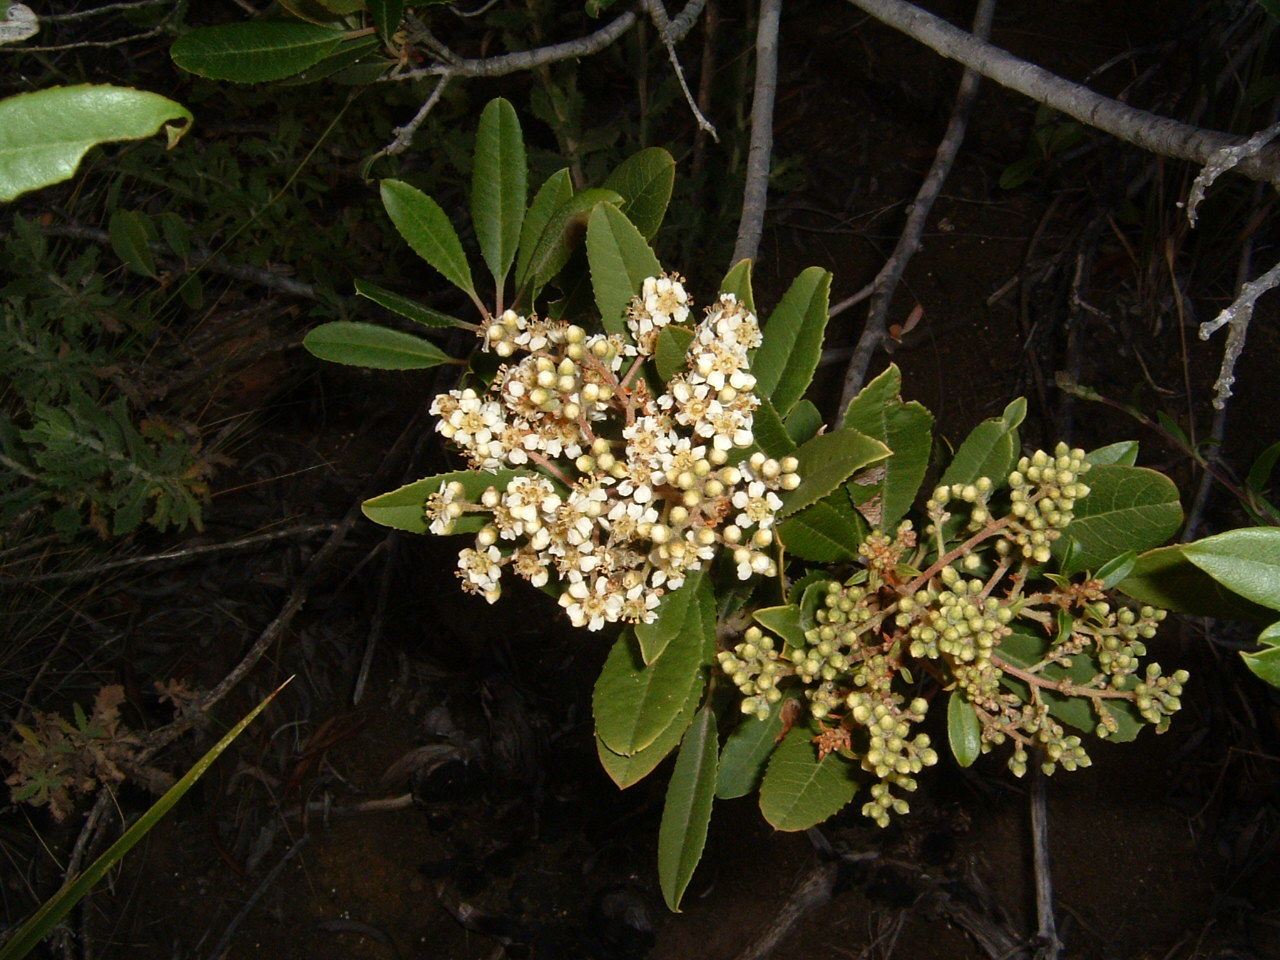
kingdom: Plantae
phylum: Tracheophyta
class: Magnoliopsida
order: Rosales
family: Rosaceae
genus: Heteromeles
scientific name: Heteromeles arbutifolia
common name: California-holly
